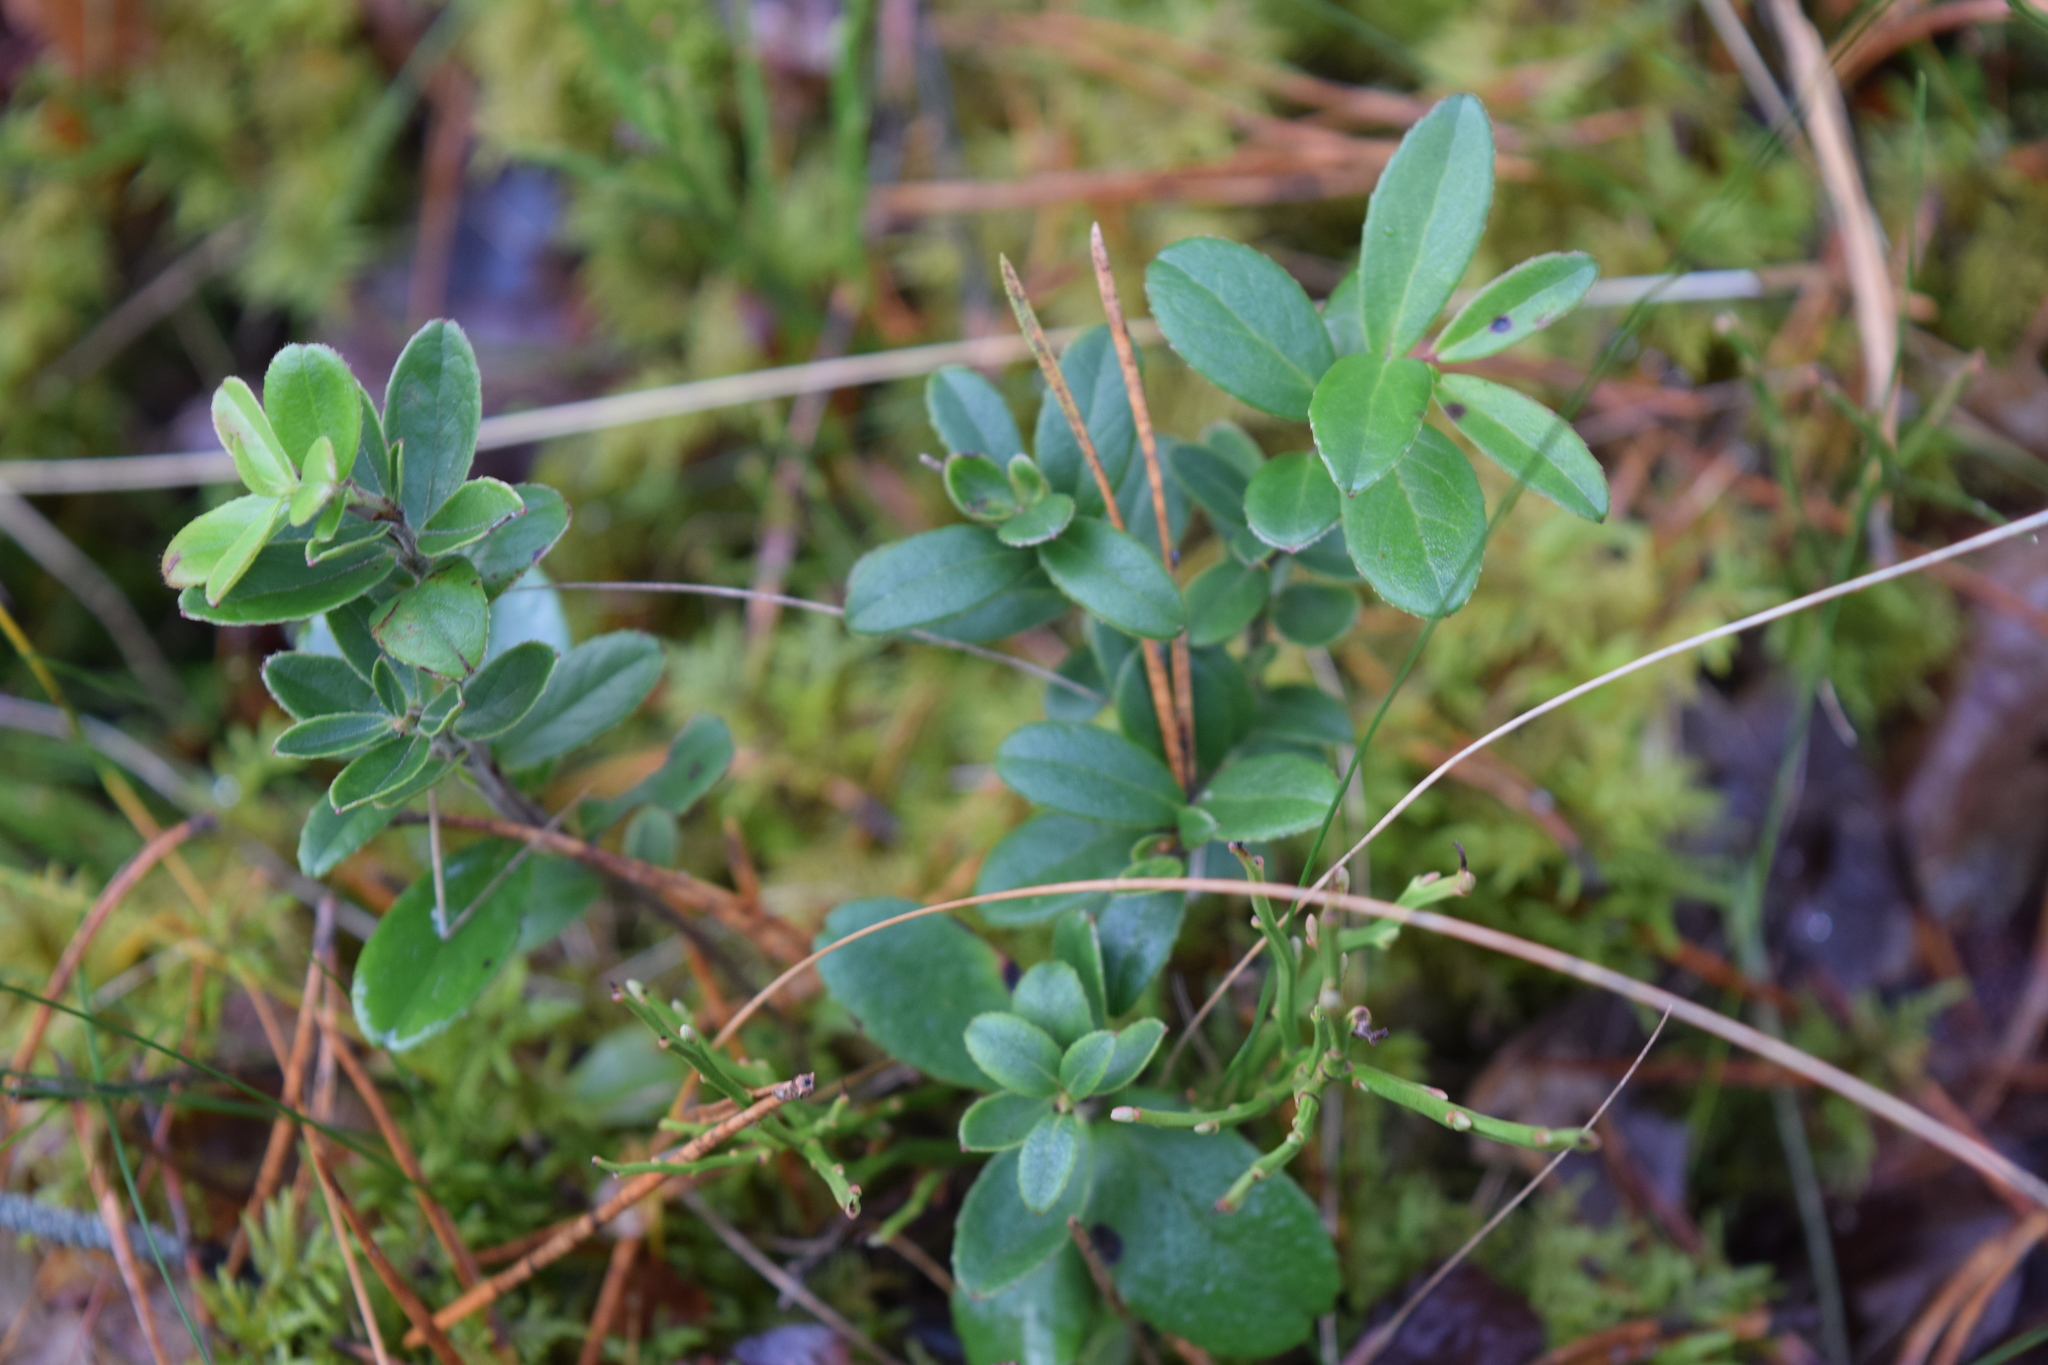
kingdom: Plantae
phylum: Tracheophyta
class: Magnoliopsida
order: Ericales
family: Ericaceae
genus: Vaccinium
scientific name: Vaccinium vitis-idaea
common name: Cowberry
